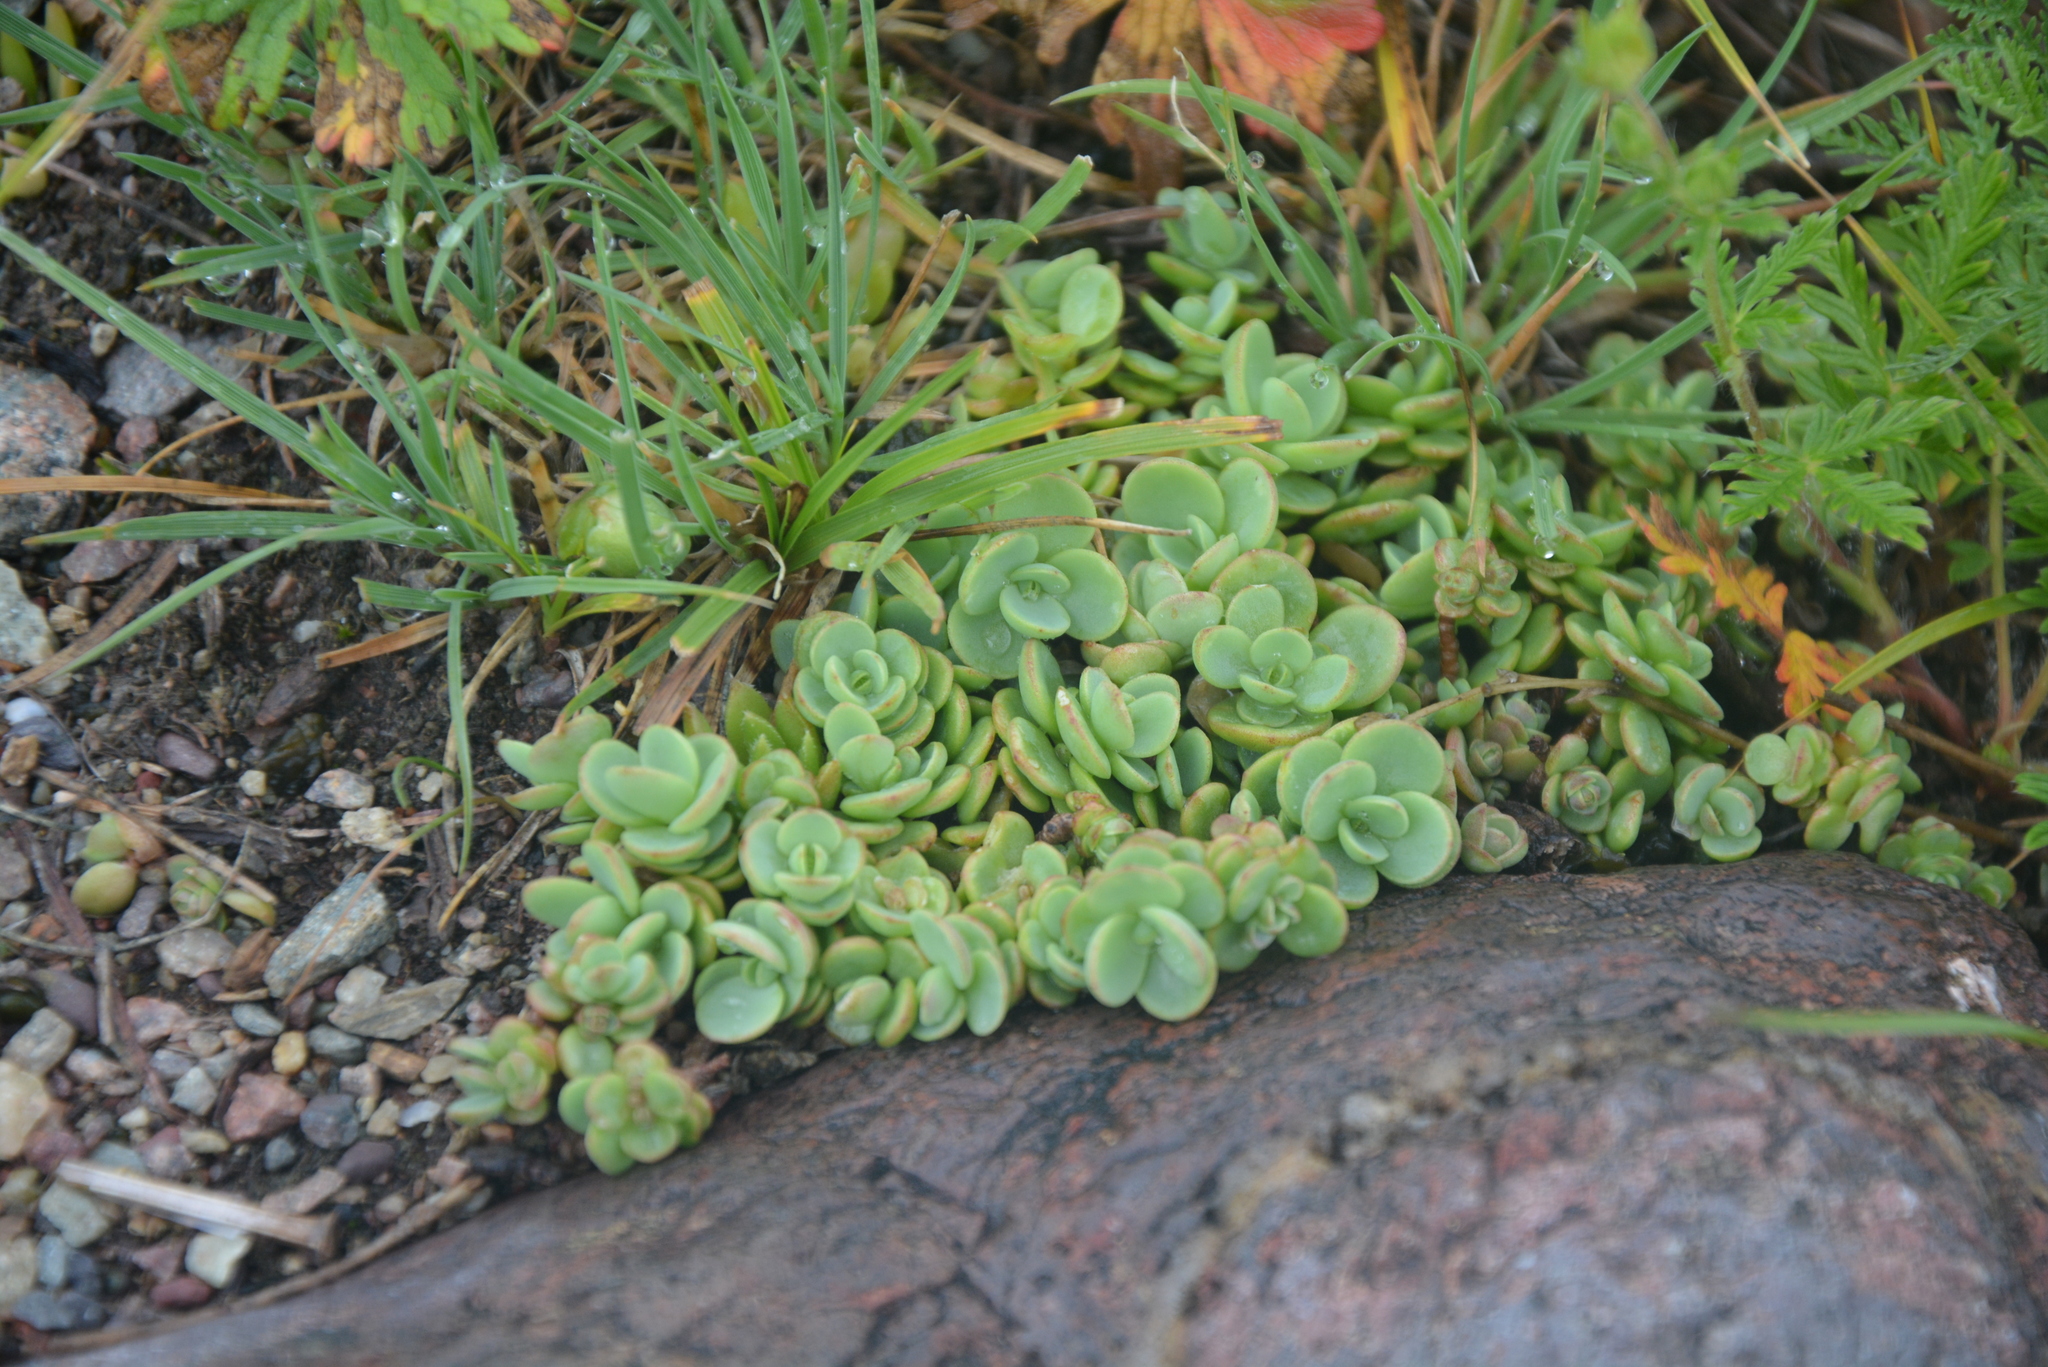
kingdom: Plantae
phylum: Tracheophyta
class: Magnoliopsida
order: Saxifragales
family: Crassulaceae
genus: Hylotelephium
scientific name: Hylotelephium ewersii
